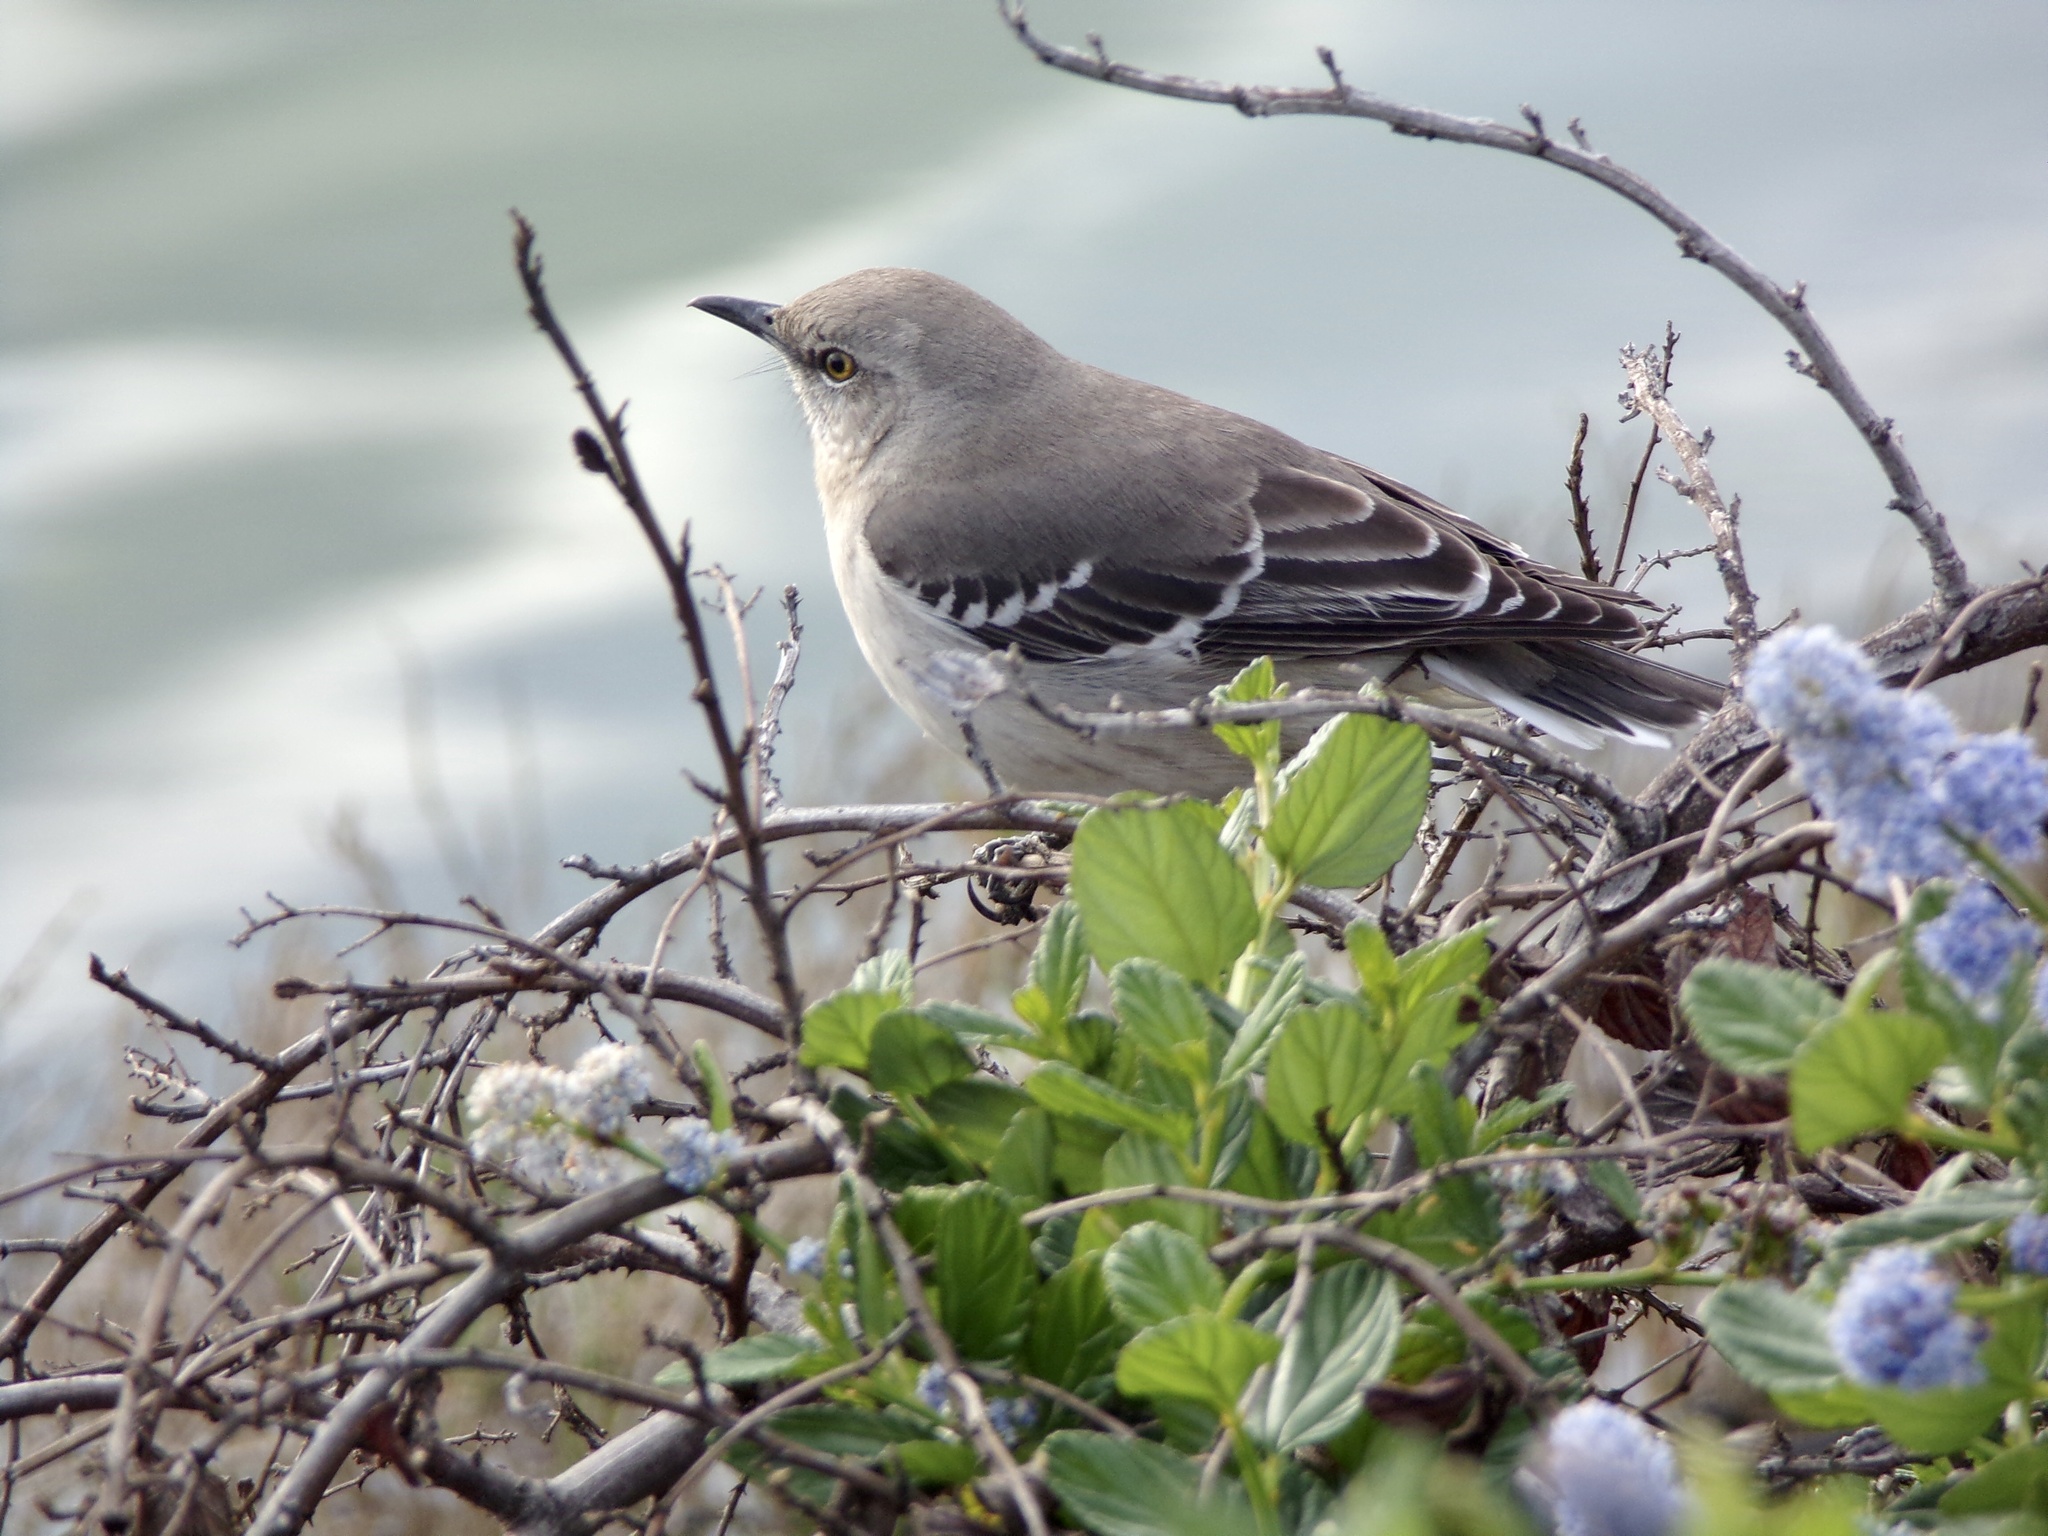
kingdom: Animalia
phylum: Chordata
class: Aves
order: Passeriformes
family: Mimidae
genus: Mimus
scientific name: Mimus polyglottos
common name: Northern mockingbird
